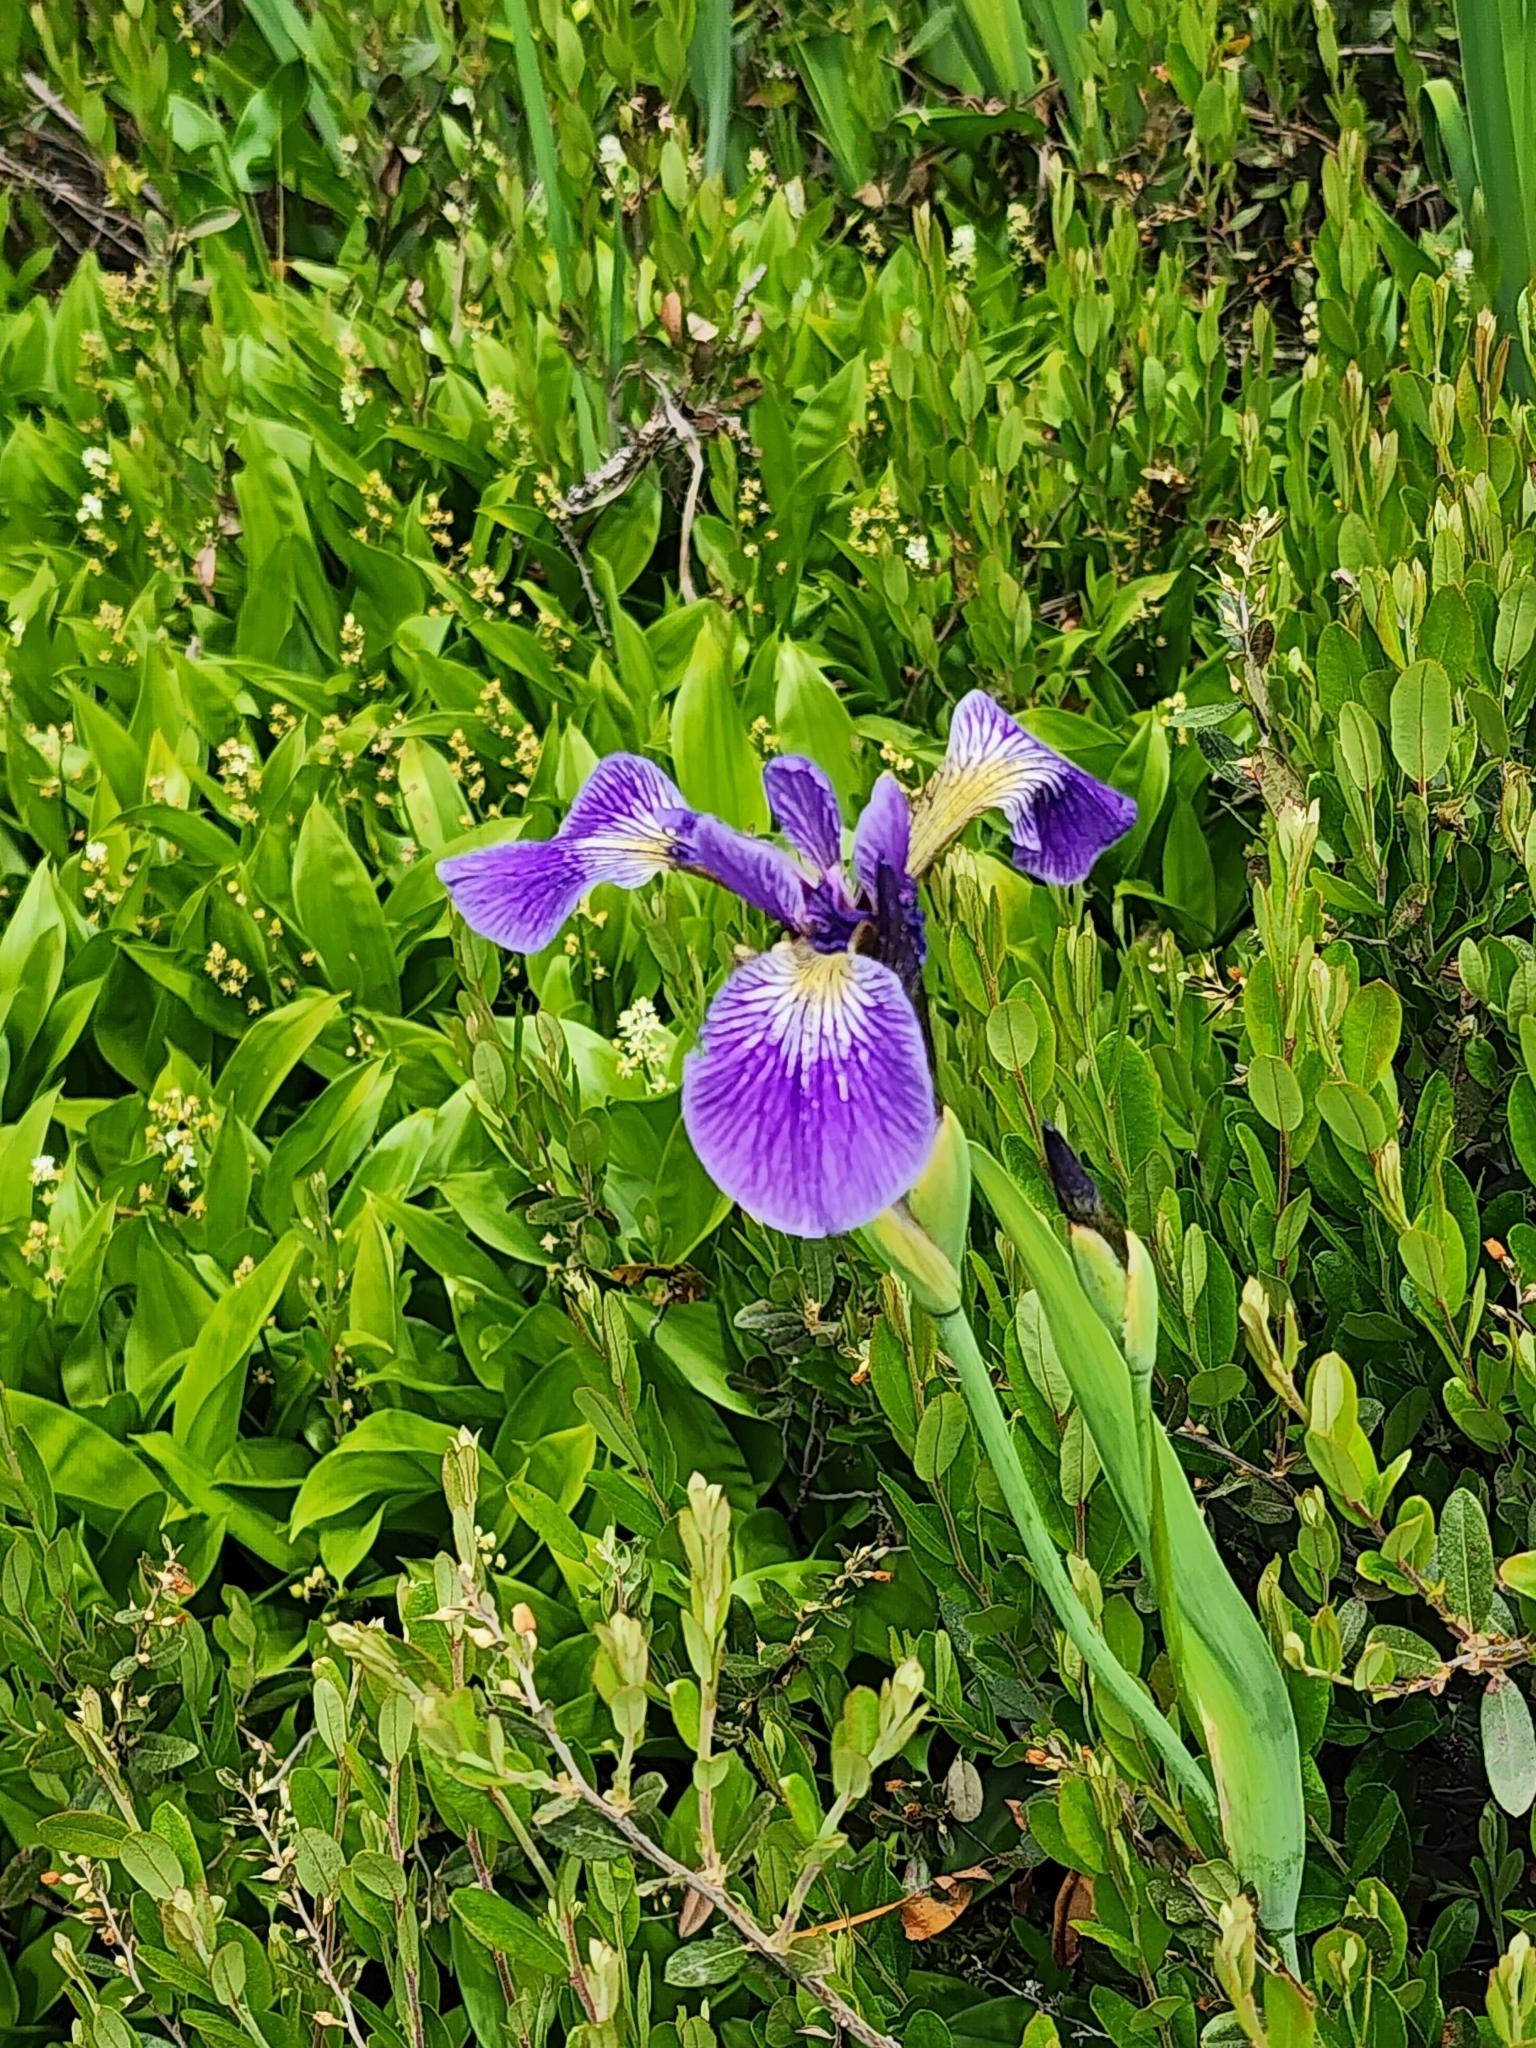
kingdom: Plantae
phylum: Tracheophyta
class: Liliopsida
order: Asparagales
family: Iridaceae
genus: Iris
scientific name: Iris versicolor
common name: Purple iris
